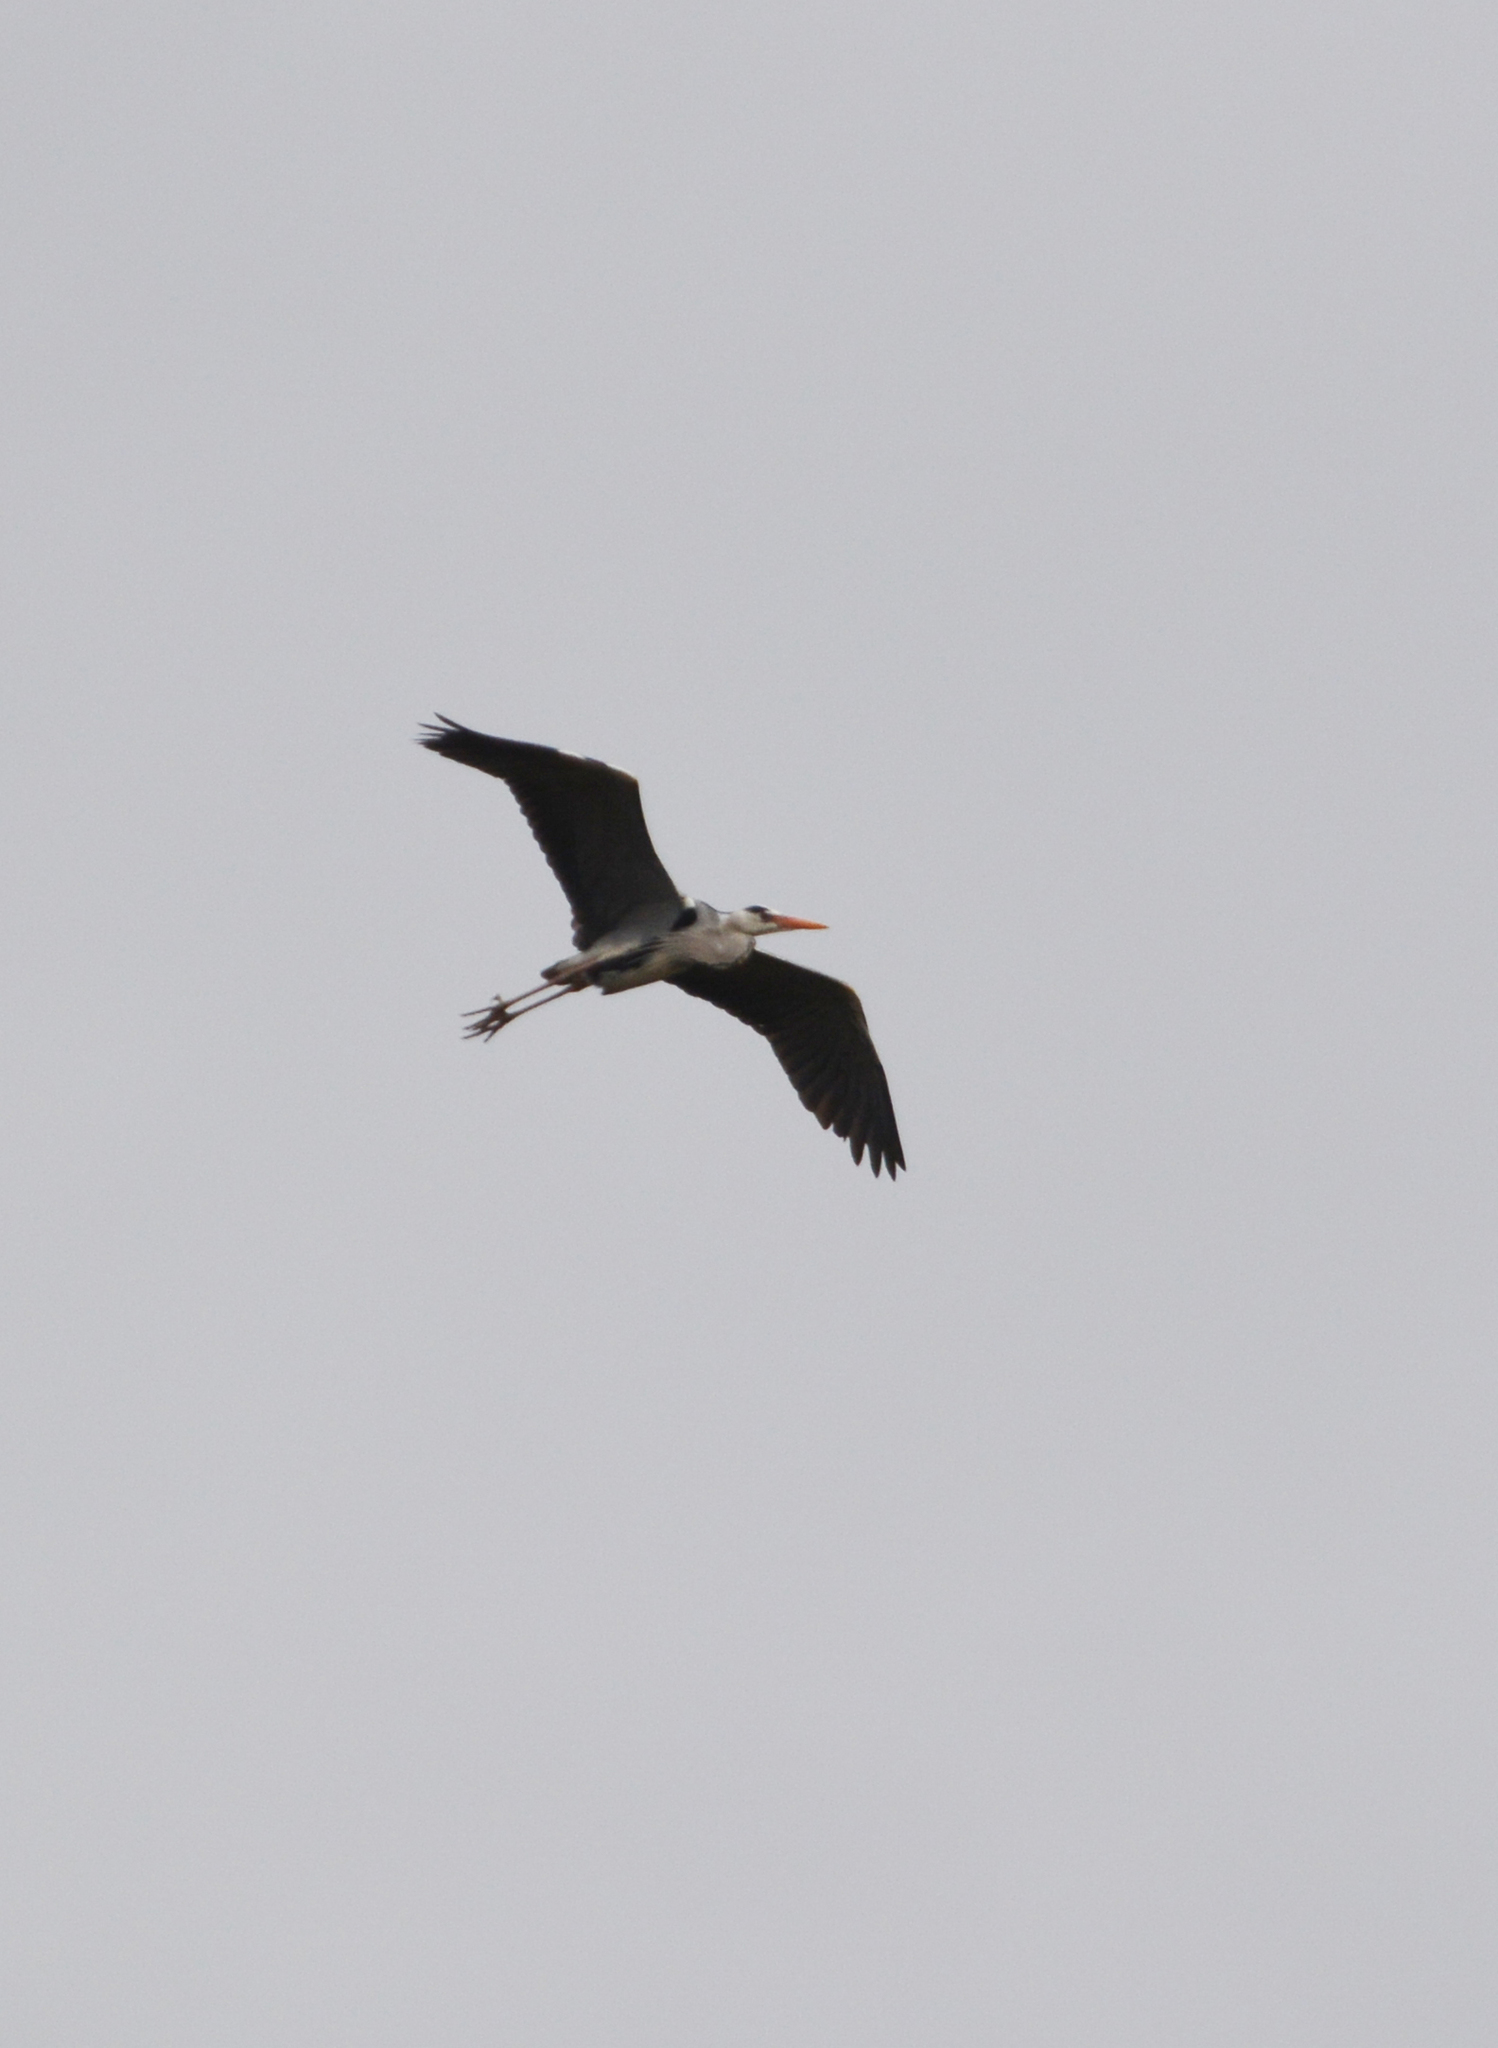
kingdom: Animalia
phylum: Chordata
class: Aves
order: Pelecaniformes
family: Ardeidae
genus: Ardea
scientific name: Ardea cinerea
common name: Grey heron
